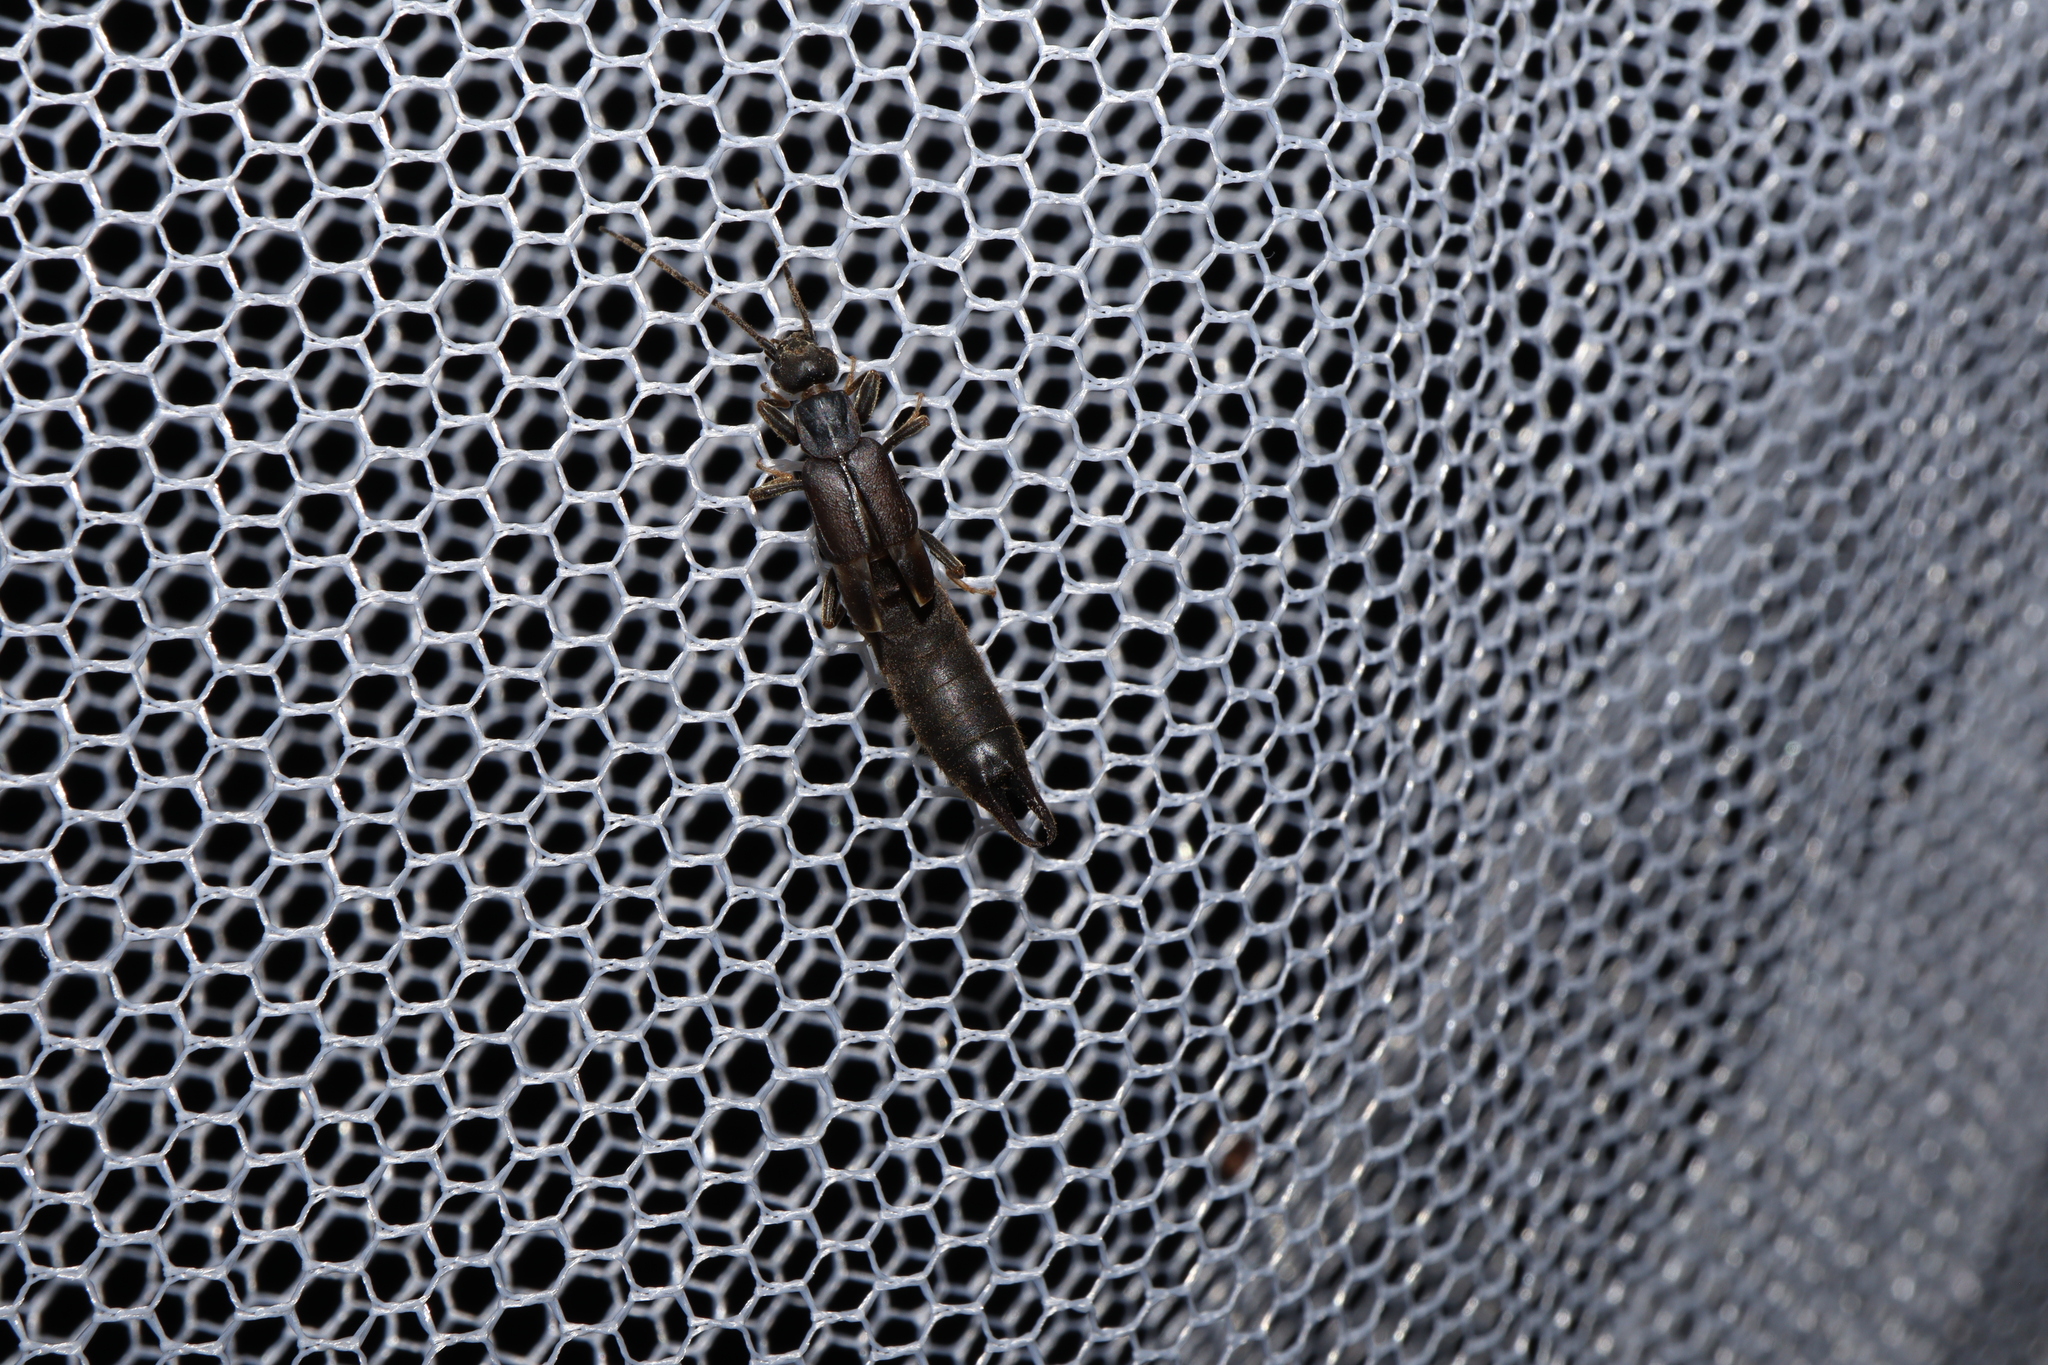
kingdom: Animalia
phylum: Arthropoda
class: Insecta
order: Dermaptera
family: Labiduridae
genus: Nala
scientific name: Nala lividipes
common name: Earwig
